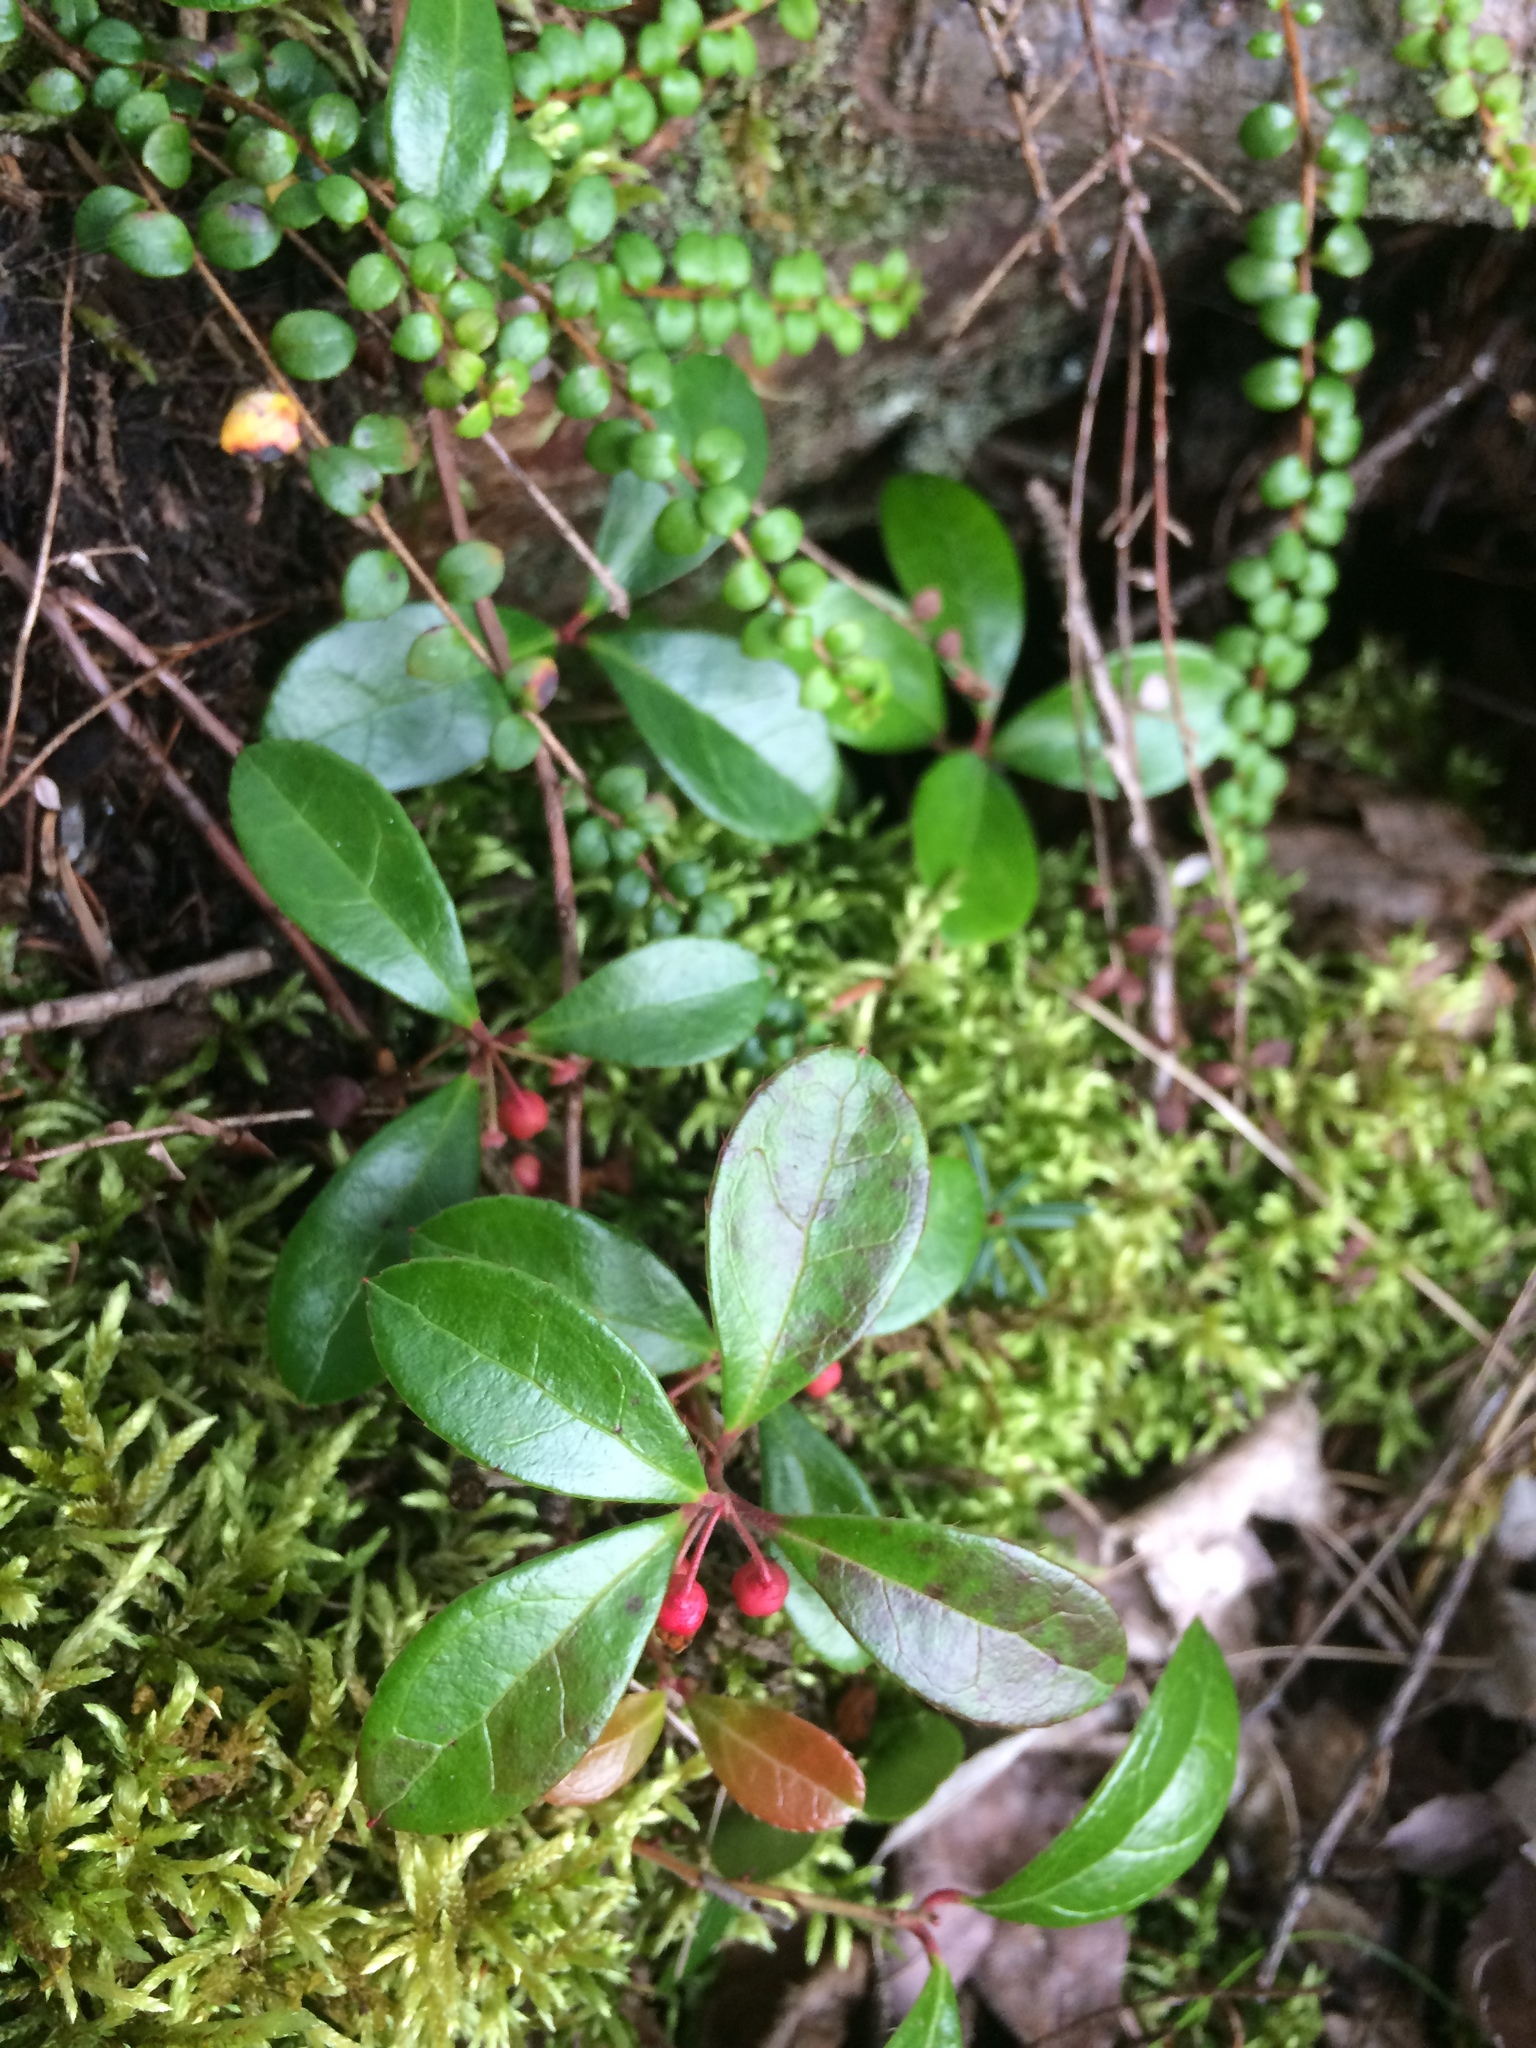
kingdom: Plantae
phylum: Tracheophyta
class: Magnoliopsida
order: Ericales
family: Ericaceae
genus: Gaultheria
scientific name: Gaultheria procumbens
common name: Checkerberry
